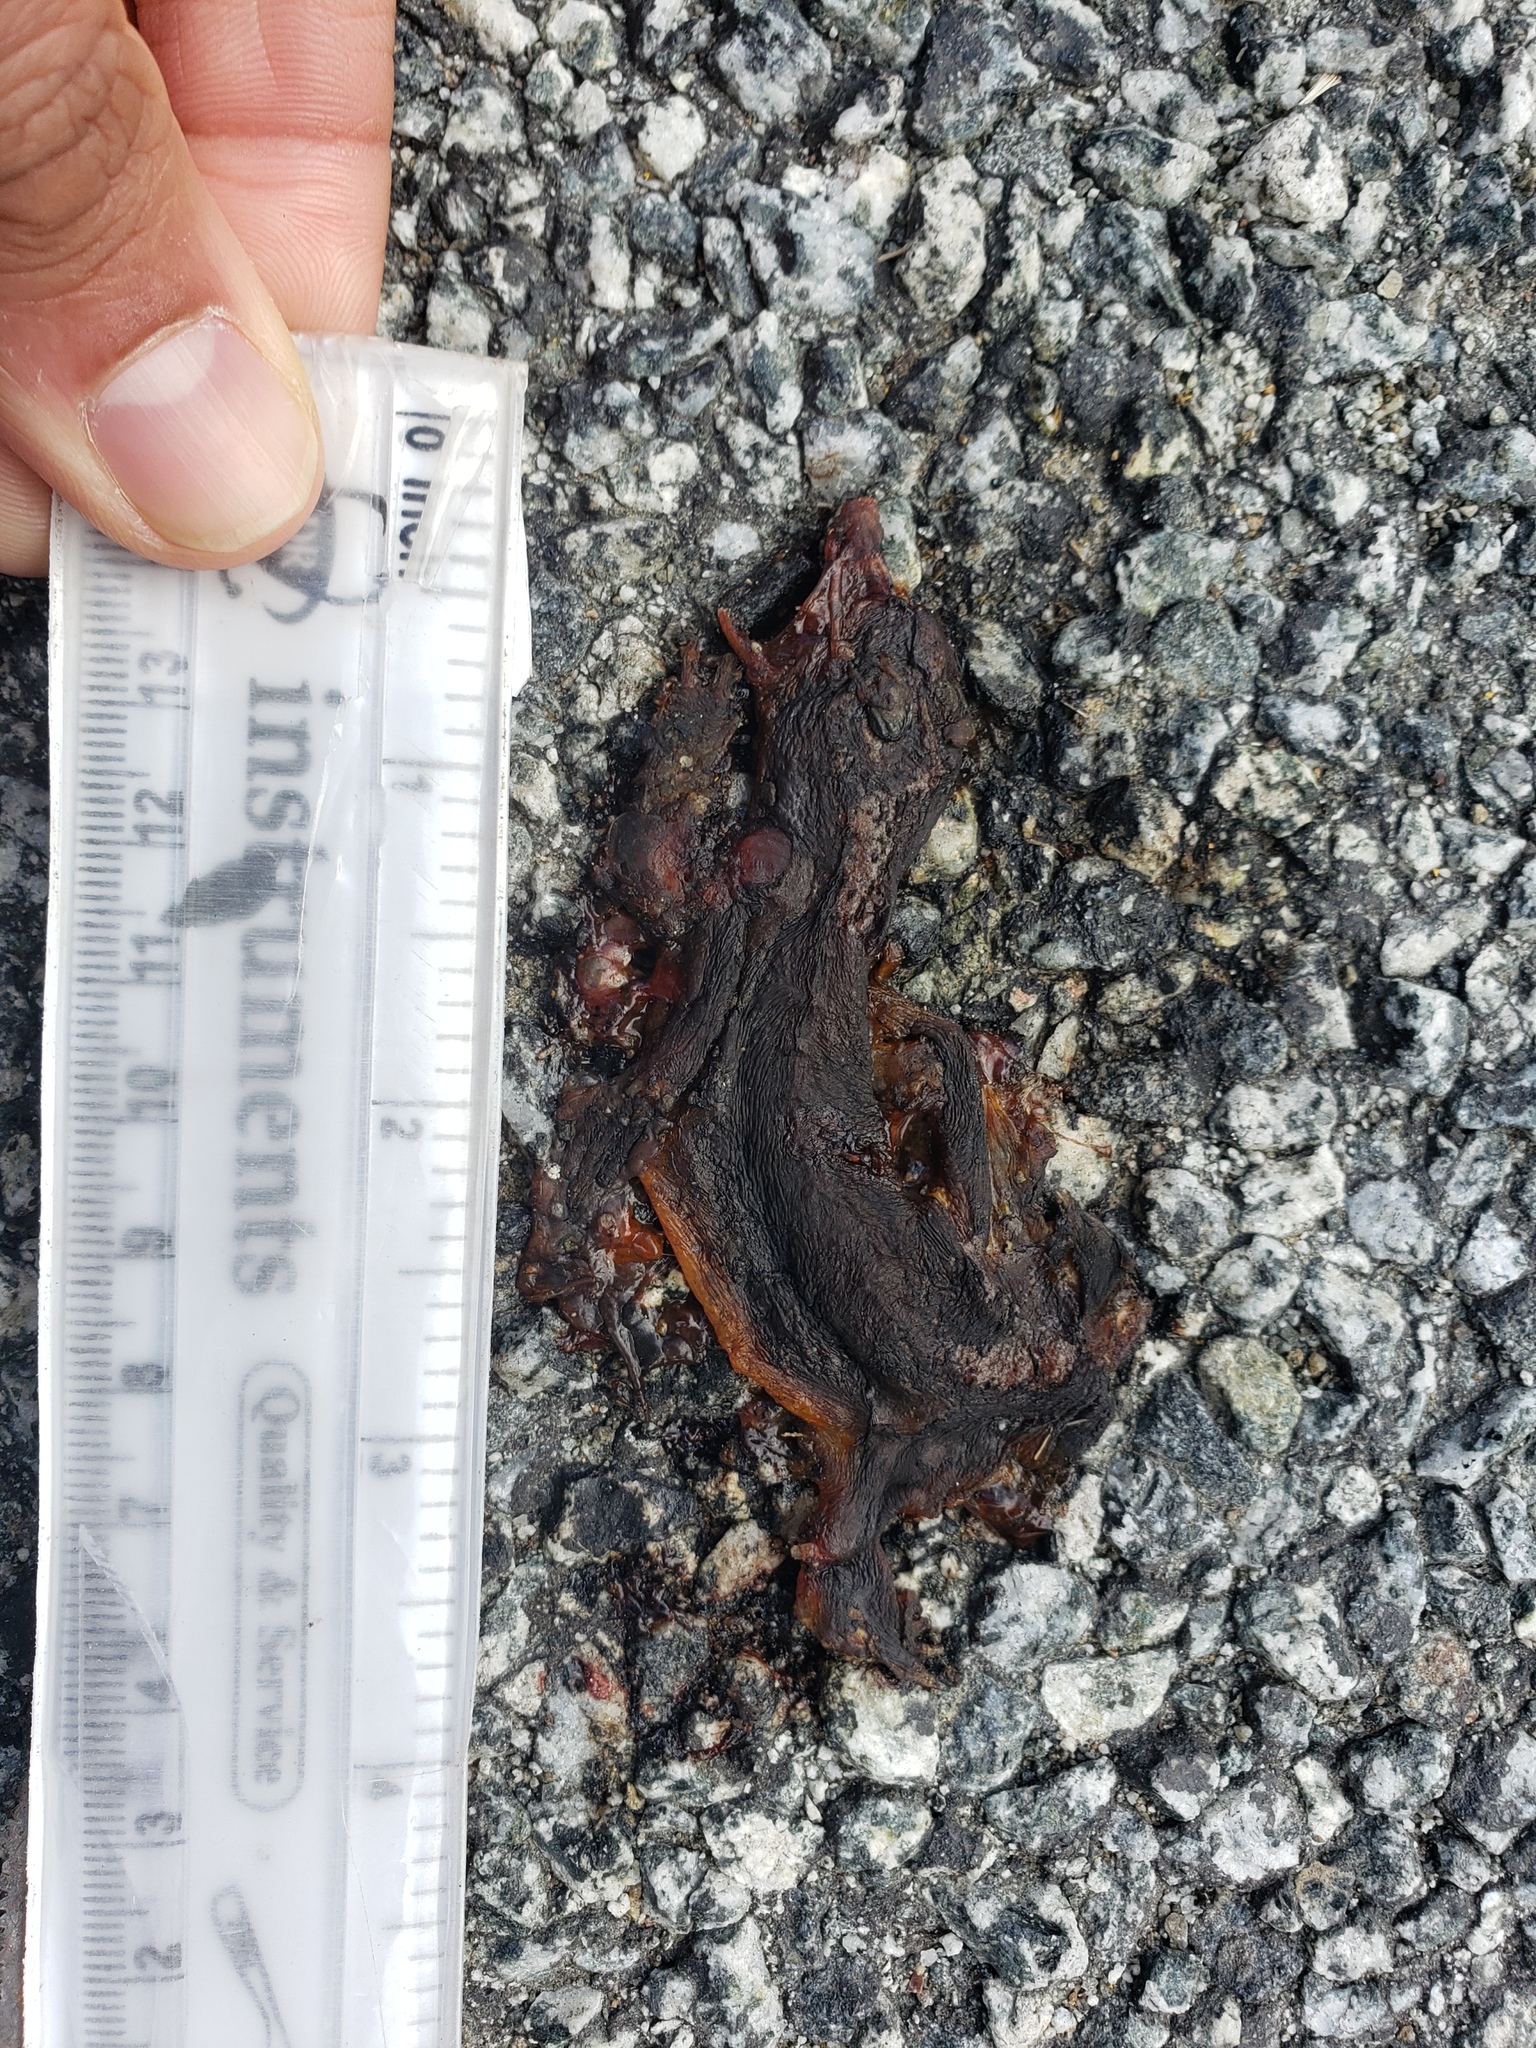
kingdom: Animalia
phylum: Chordata
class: Amphibia
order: Caudata
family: Salamandridae
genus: Taricha
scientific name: Taricha
